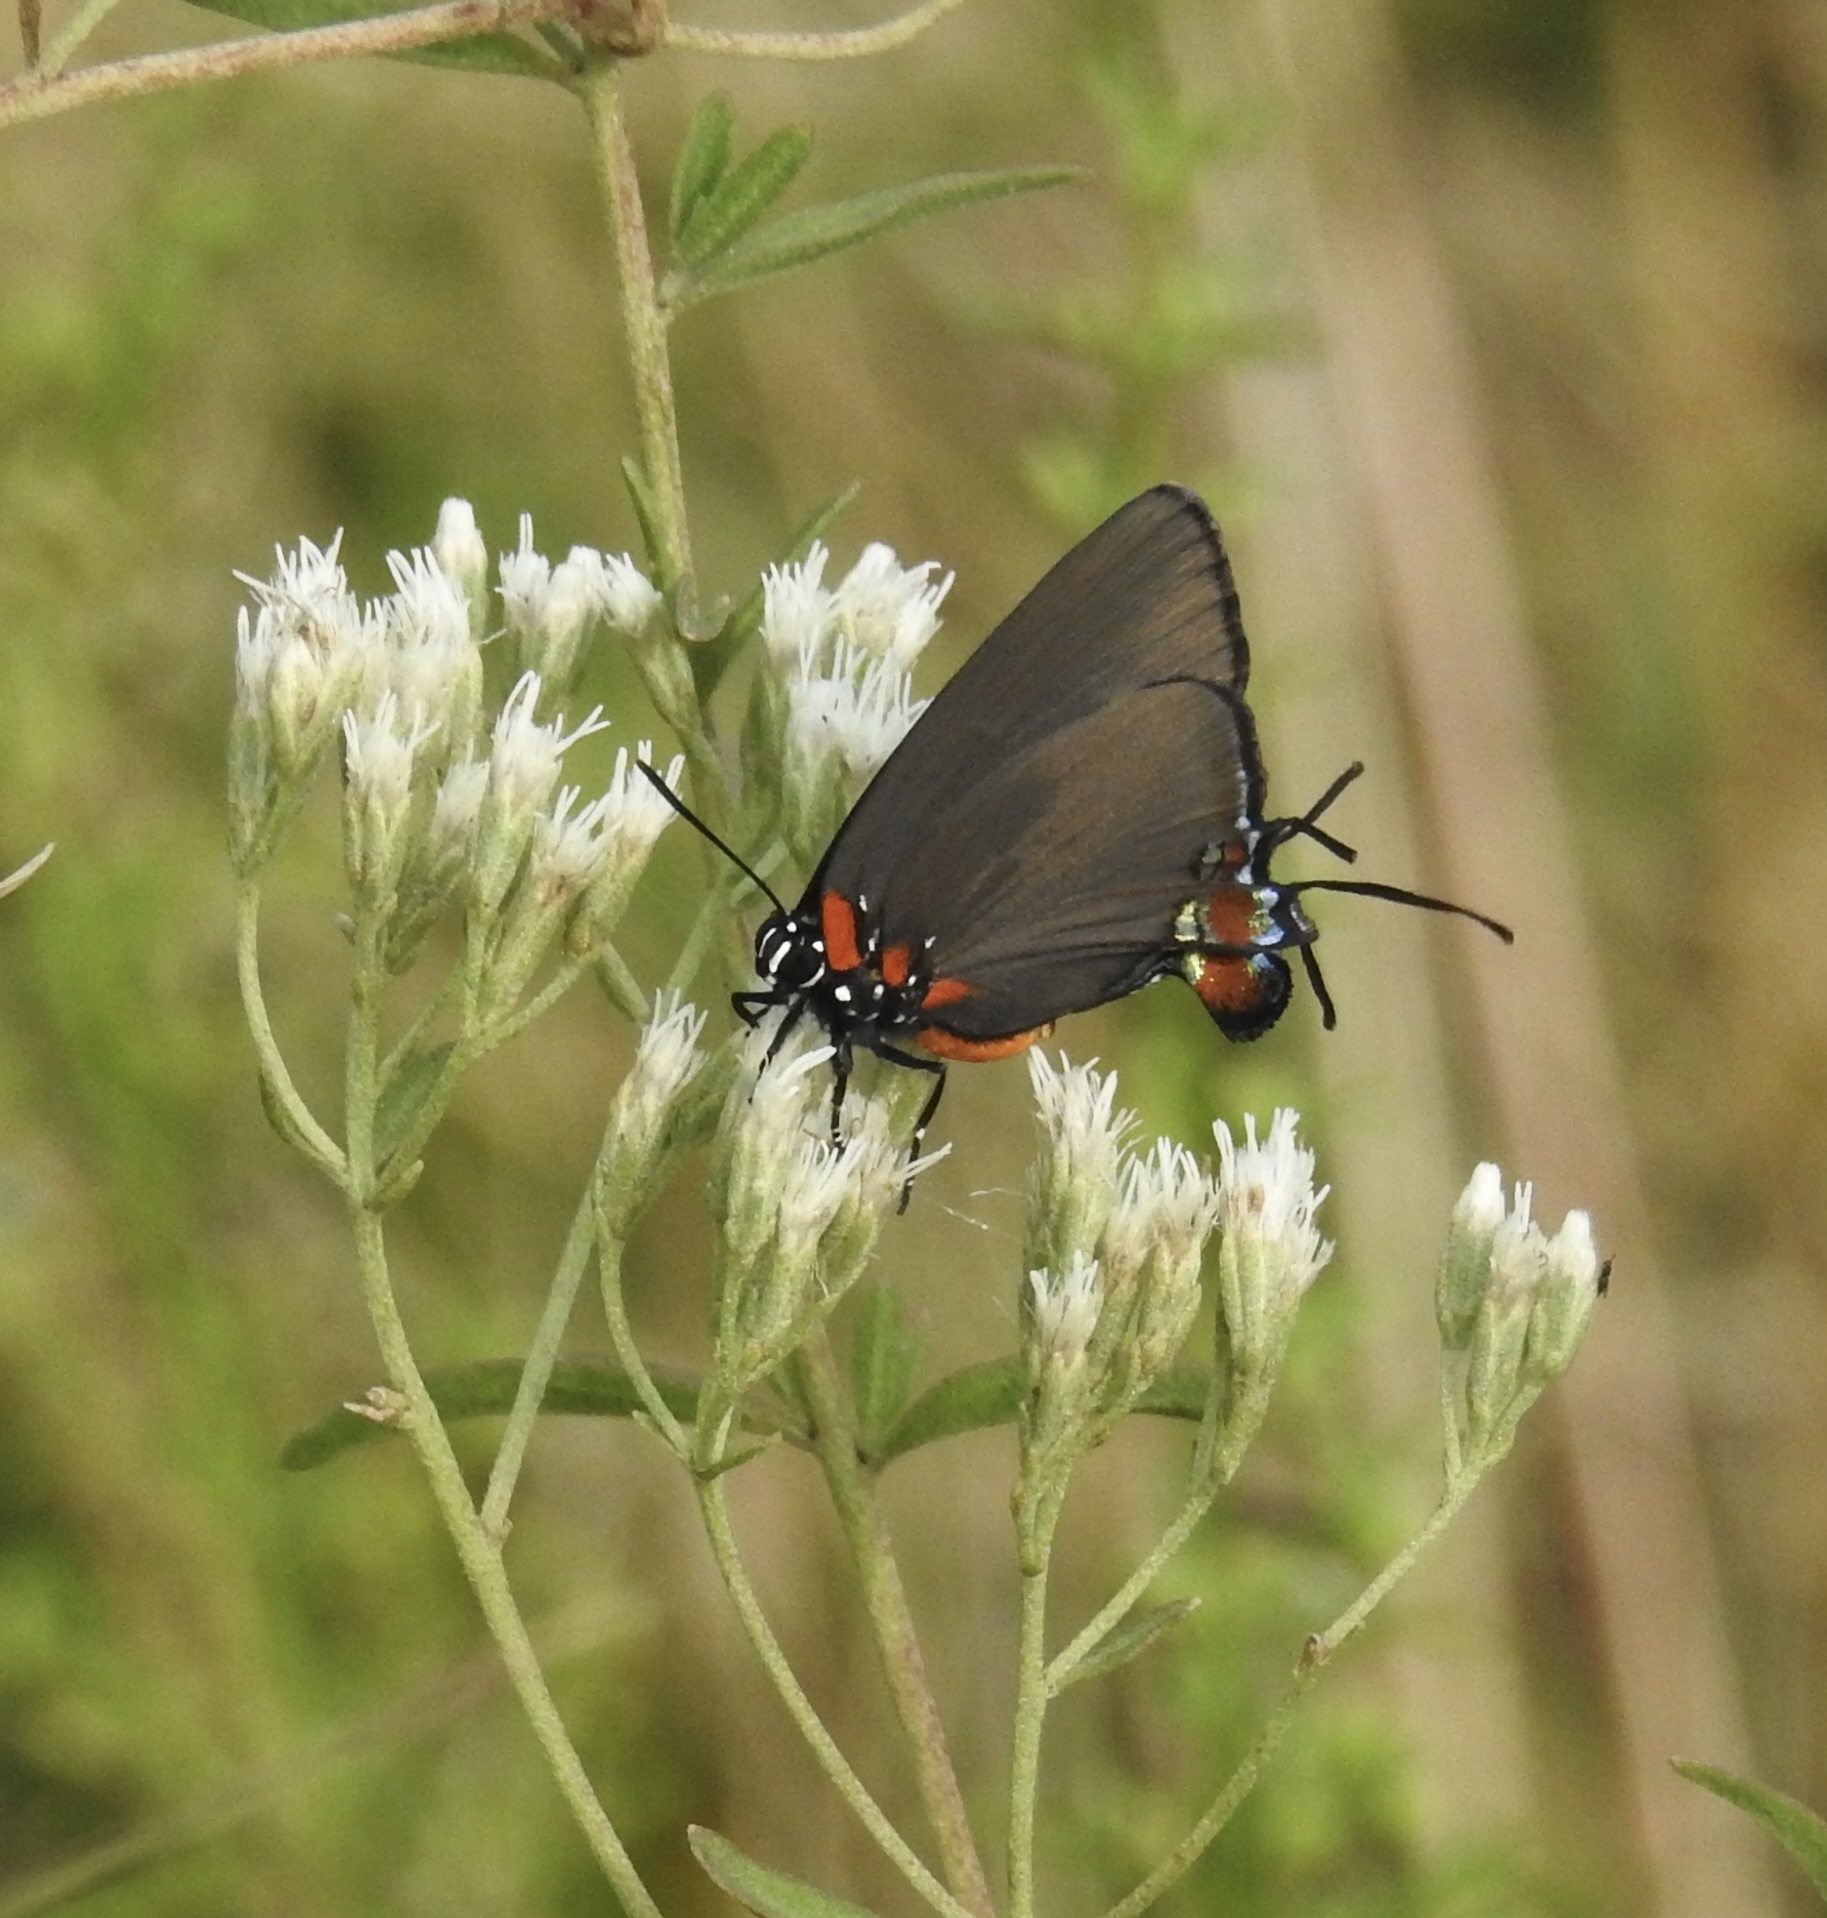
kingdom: Animalia
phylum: Arthropoda
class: Insecta
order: Lepidoptera
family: Lycaenidae
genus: Atlides
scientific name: Atlides halesus
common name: Great purple hairstreak
